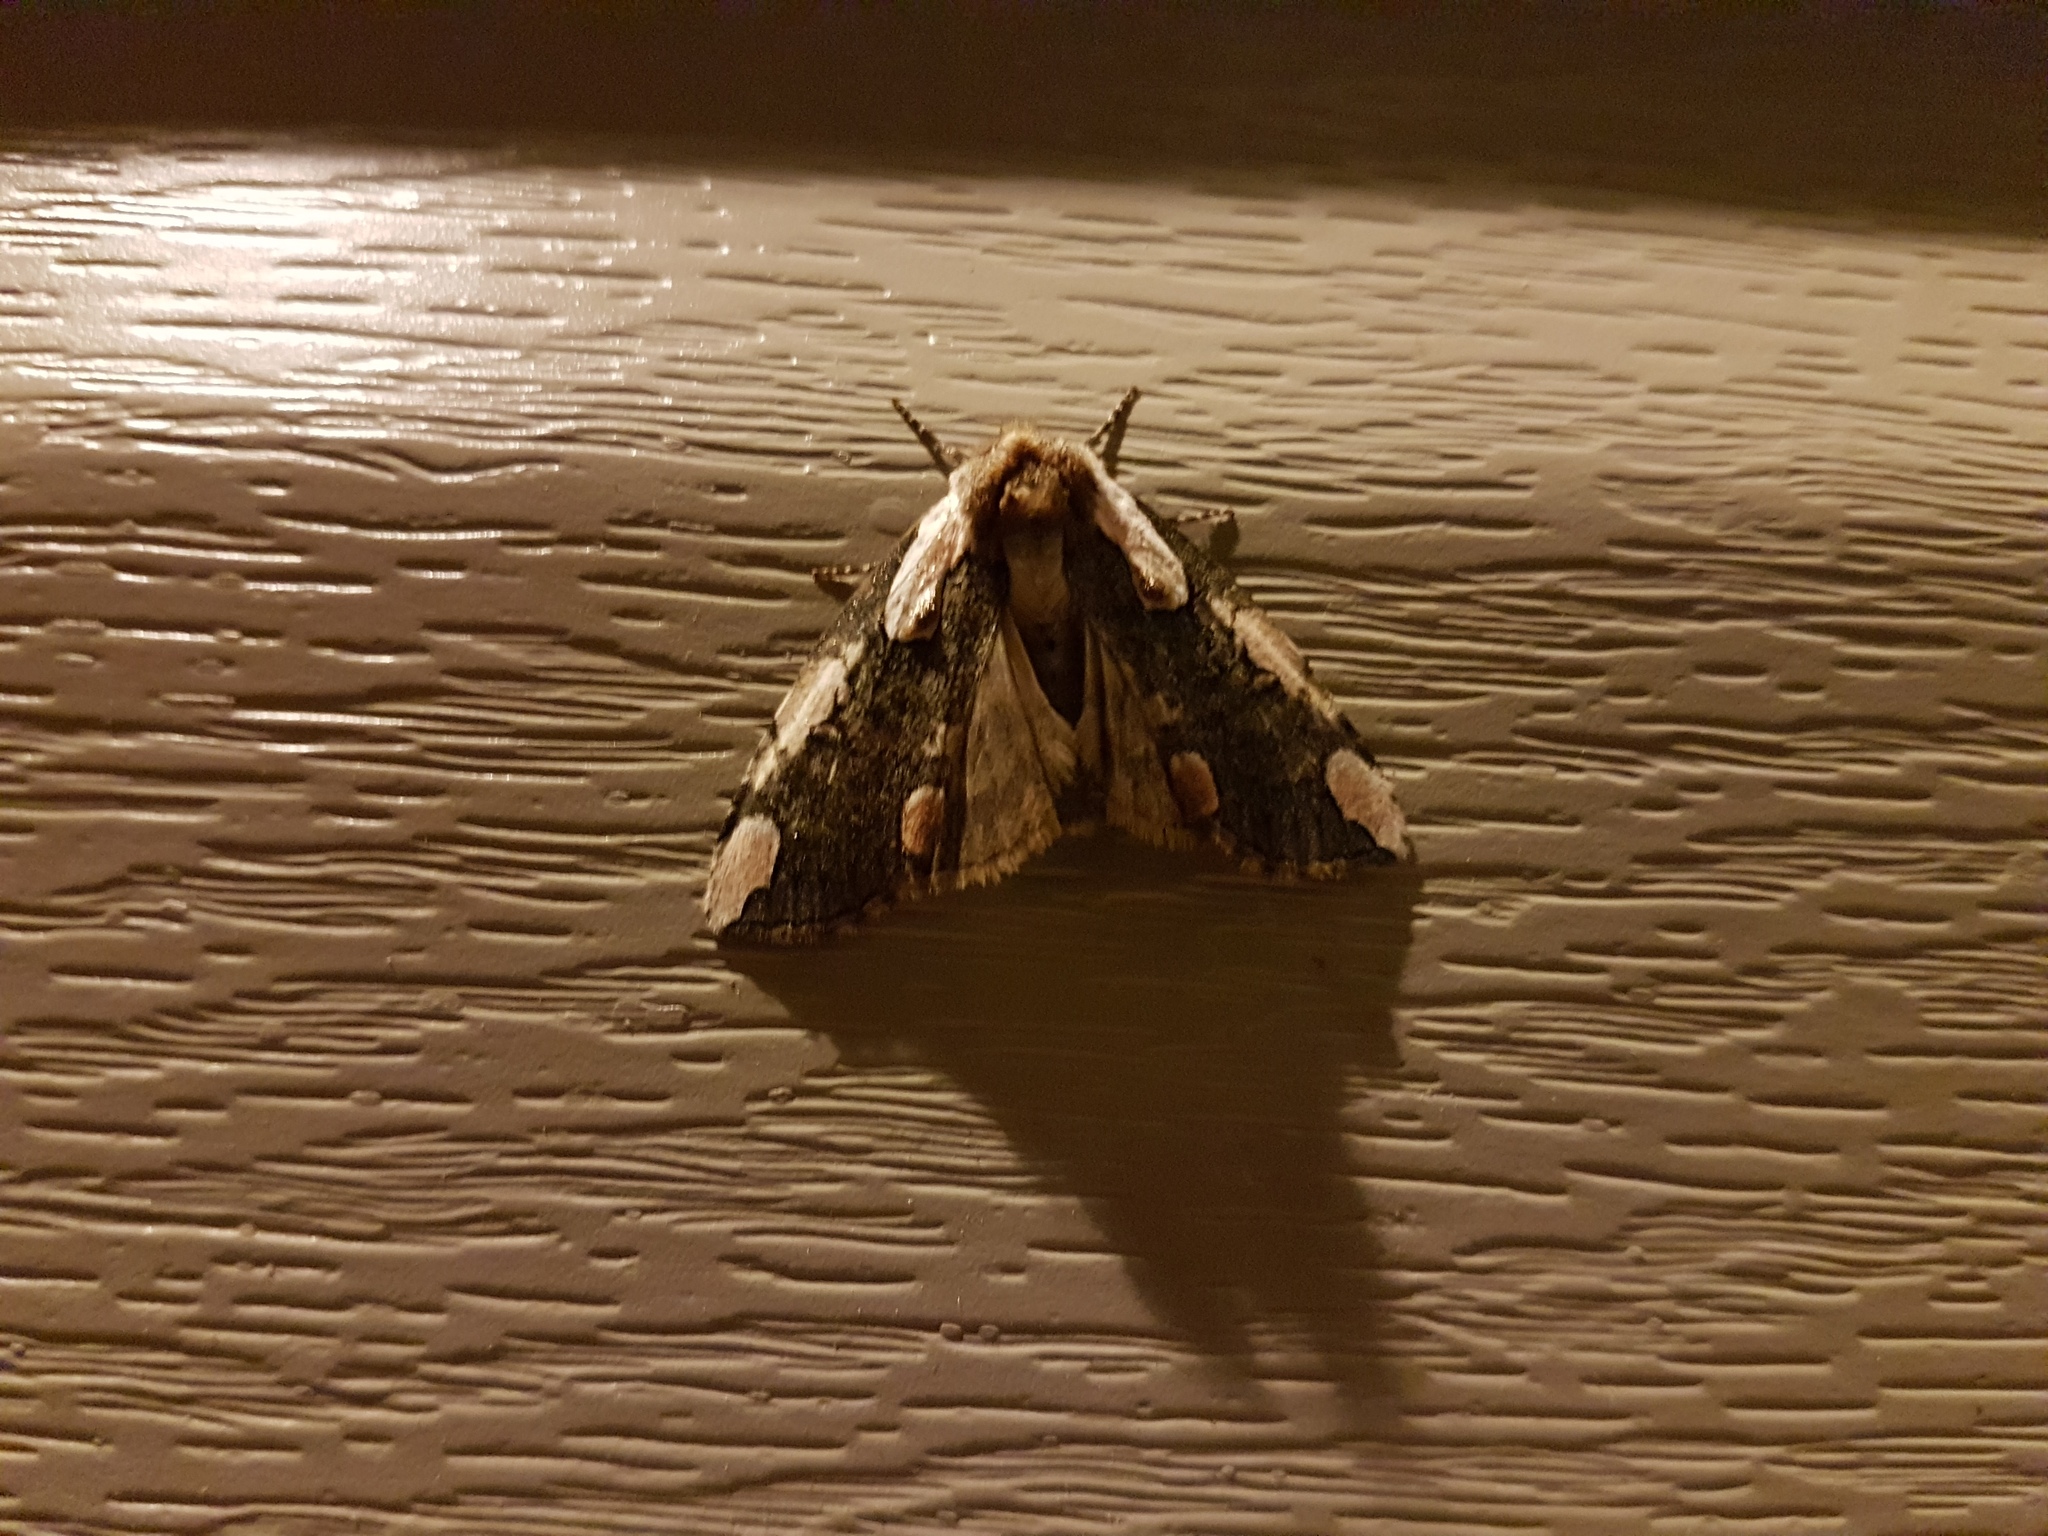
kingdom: Animalia
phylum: Arthropoda
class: Insecta
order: Lepidoptera
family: Drepanidae
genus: Euthyatira
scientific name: Euthyatira pudens
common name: Dogwood thyatirid moth
